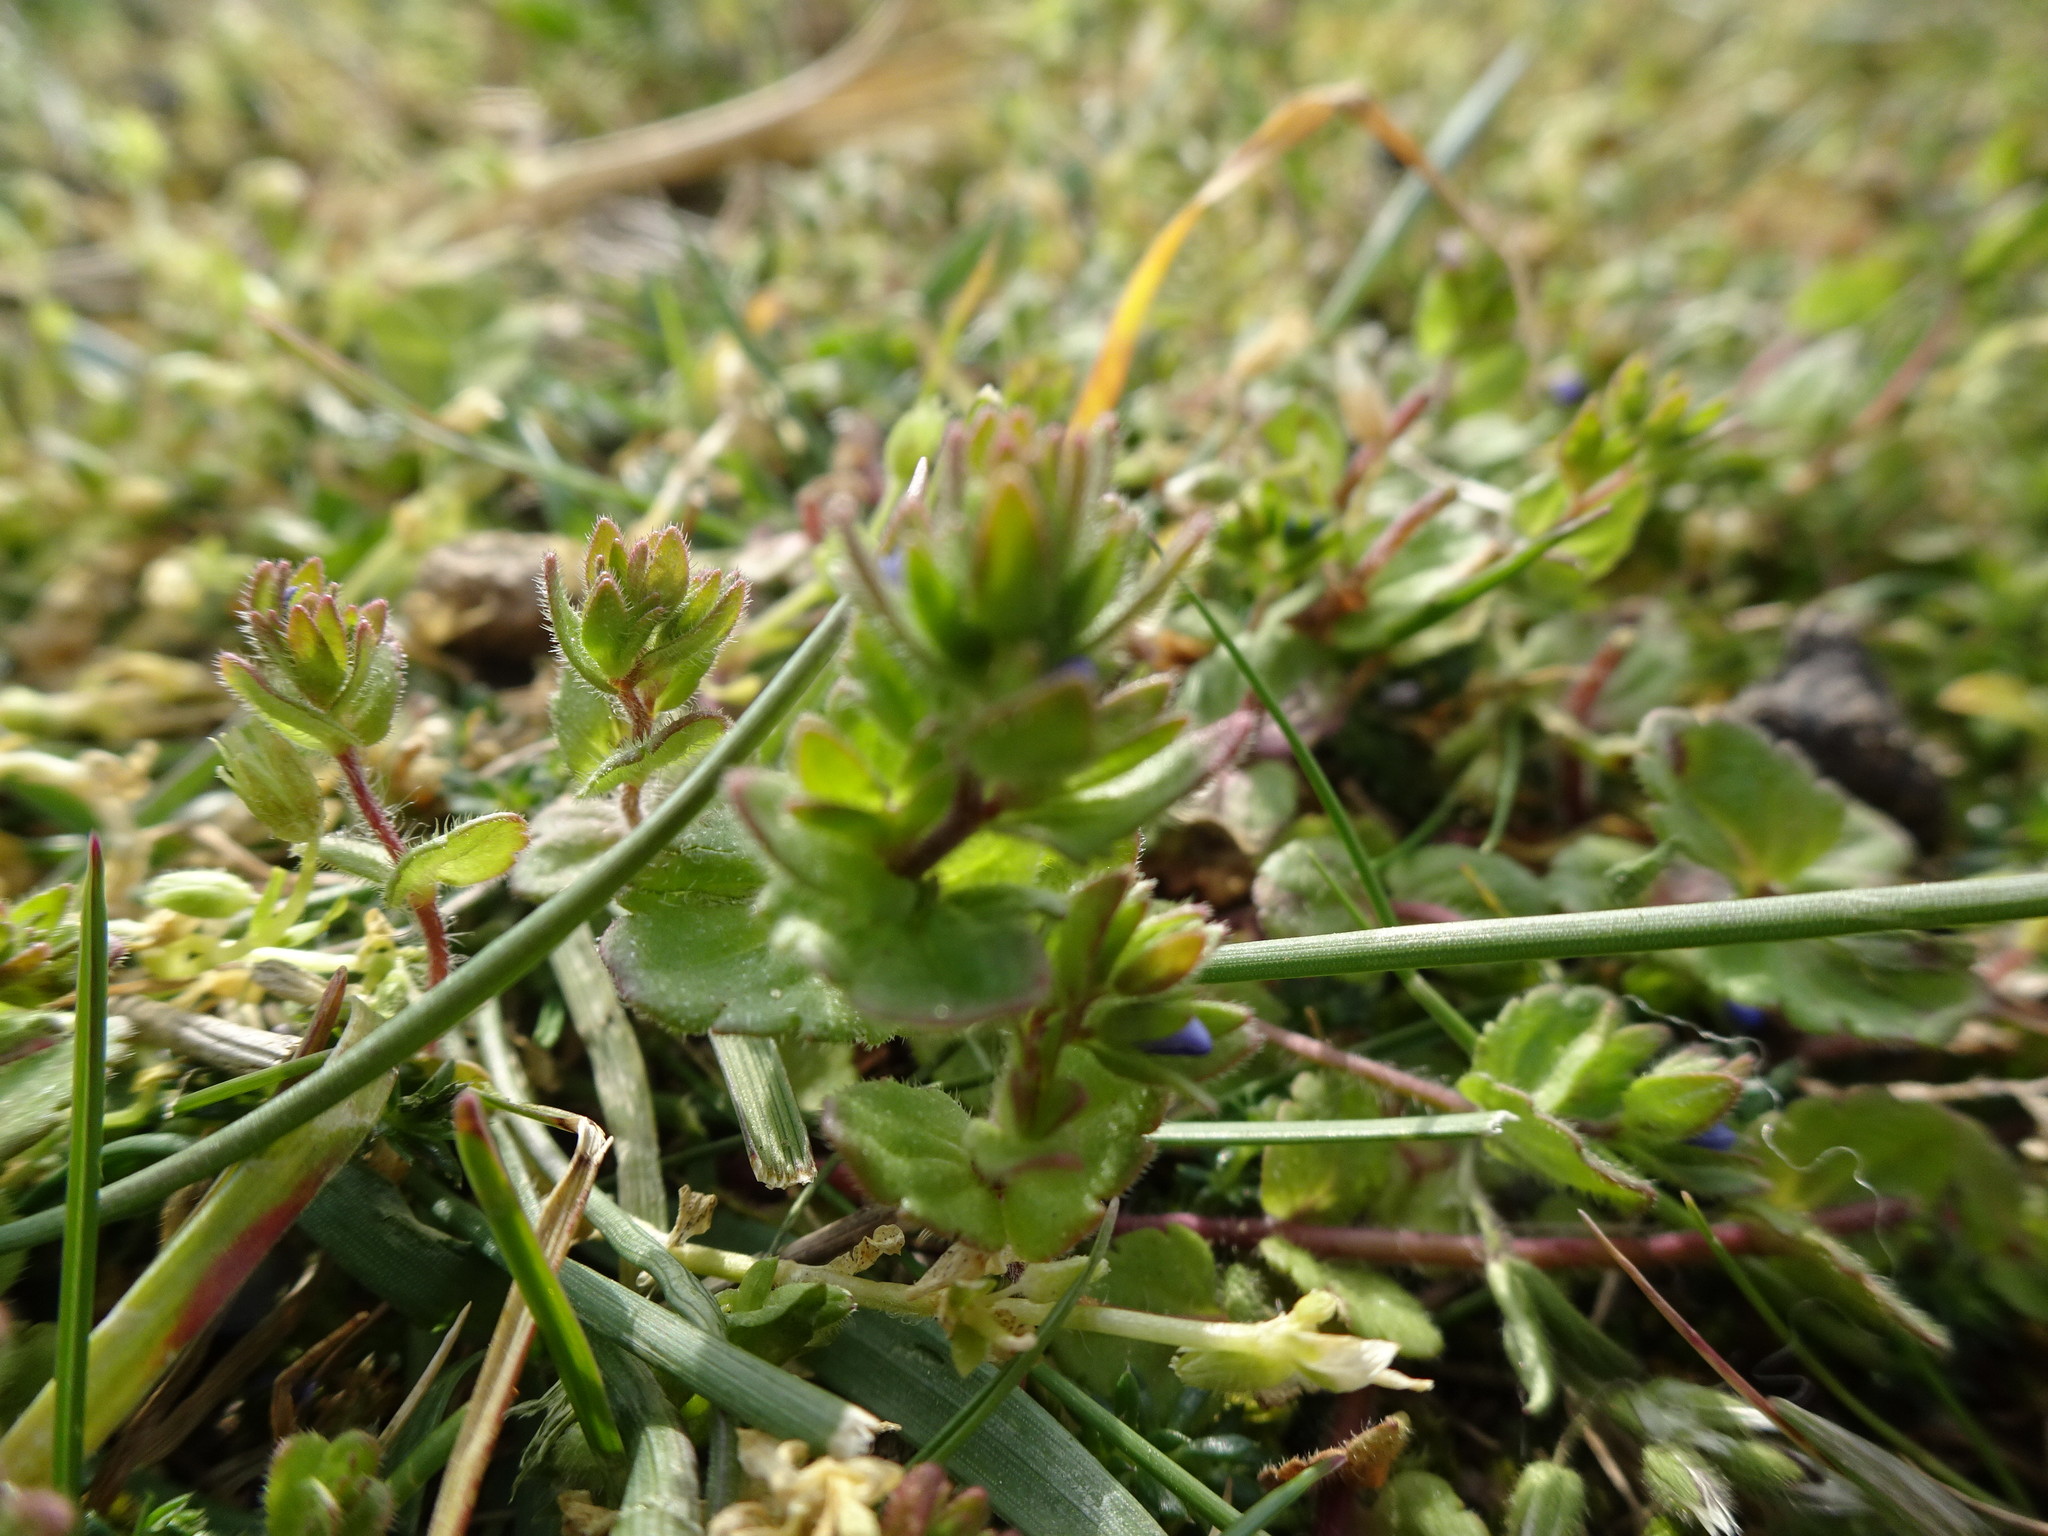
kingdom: Plantae
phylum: Tracheophyta
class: Magnoliopsida
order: Lamiales
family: Plantaginaceae
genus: Veronica
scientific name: Veronica arvensis
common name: Corn speedwell
